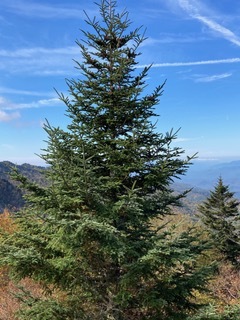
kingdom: Plantae
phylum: Tracheophyta
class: Pinopsida
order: Pinales
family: Pinaceae
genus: Abies
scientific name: Abies fraseri
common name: Fraser fir
